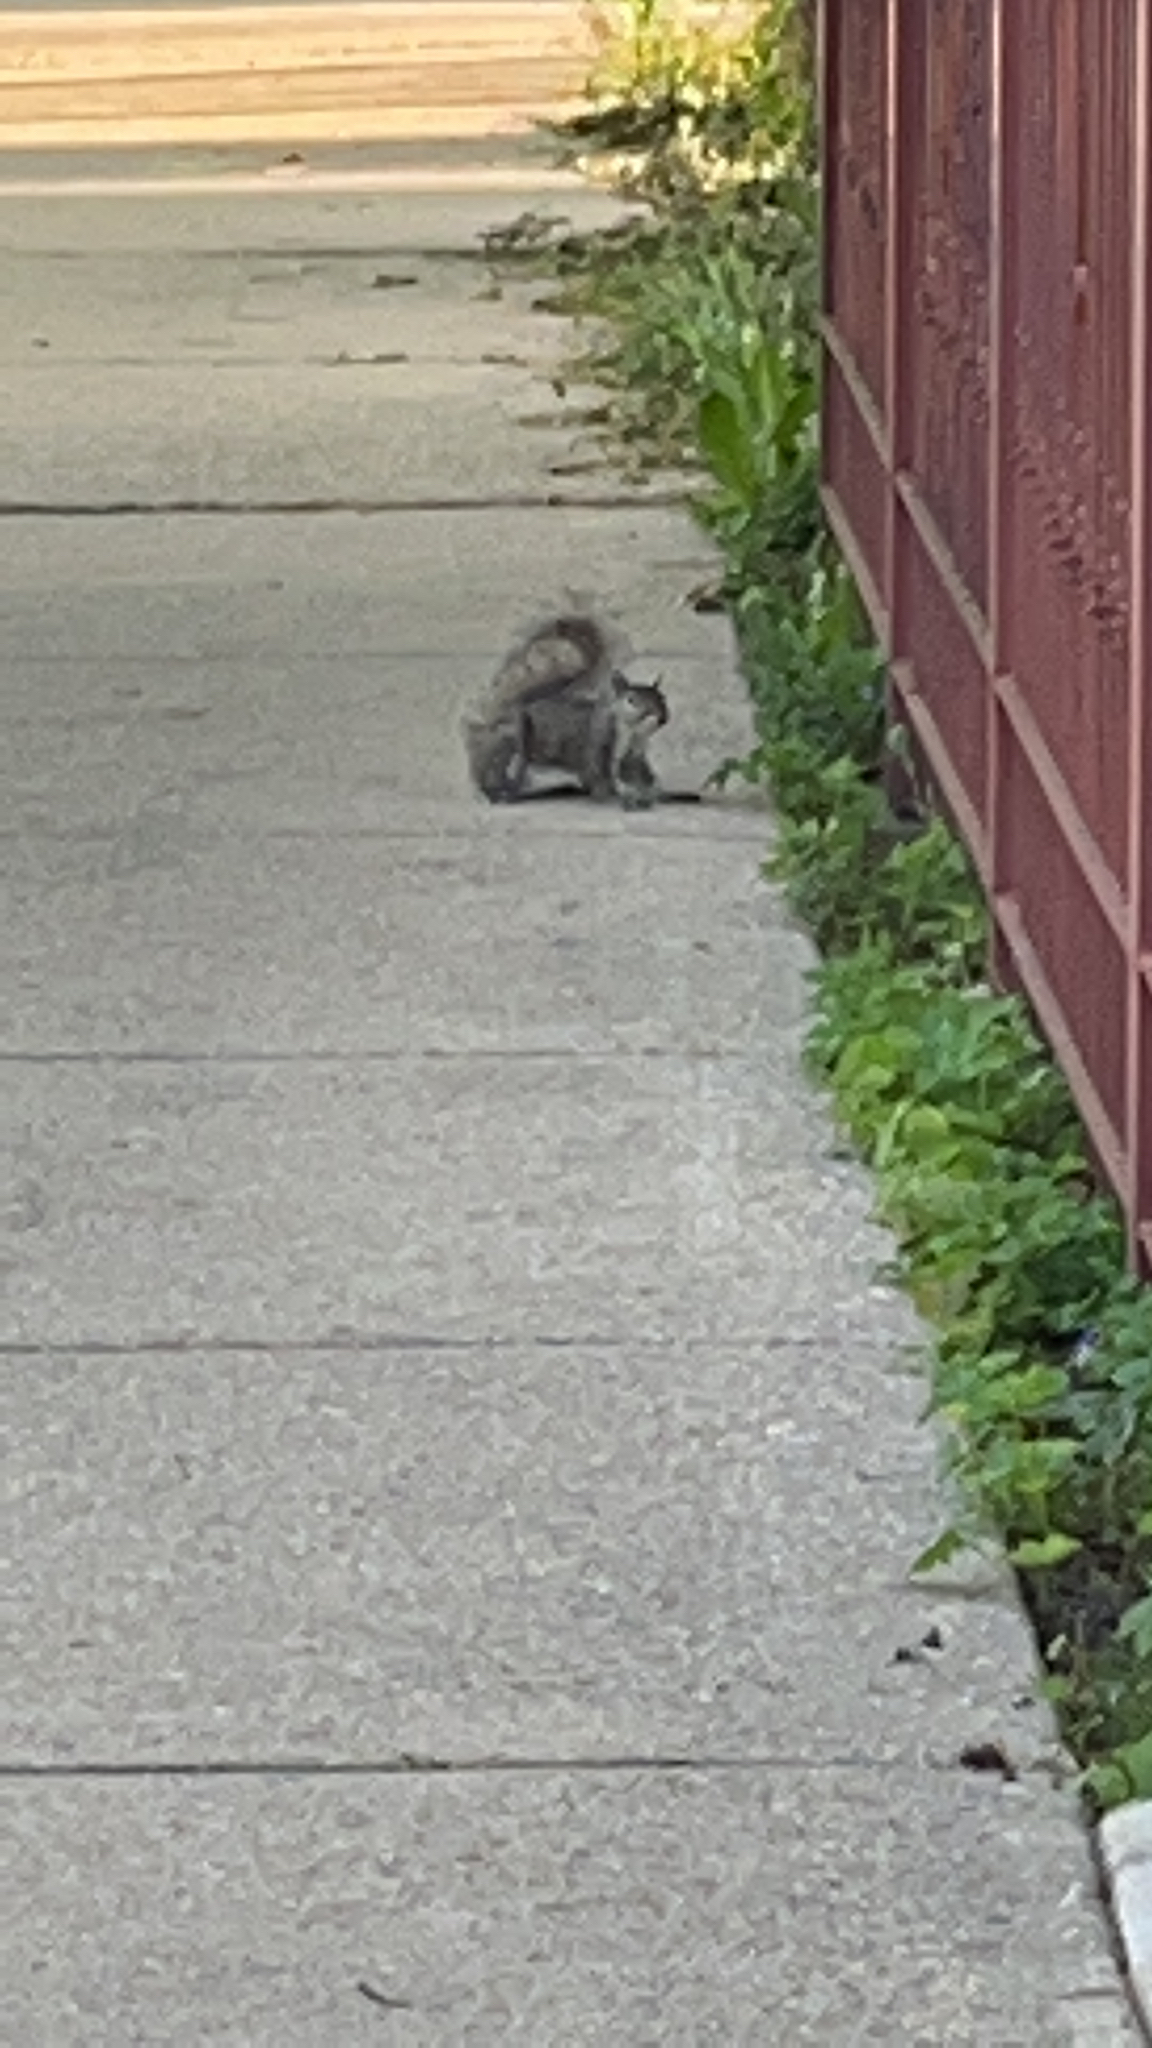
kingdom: Animalia
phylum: Chordata
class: Mammalia
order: Rodentia
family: Sciuridae
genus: Sciurus
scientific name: Sciurus carolinensis
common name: Eastern gray squirrel
